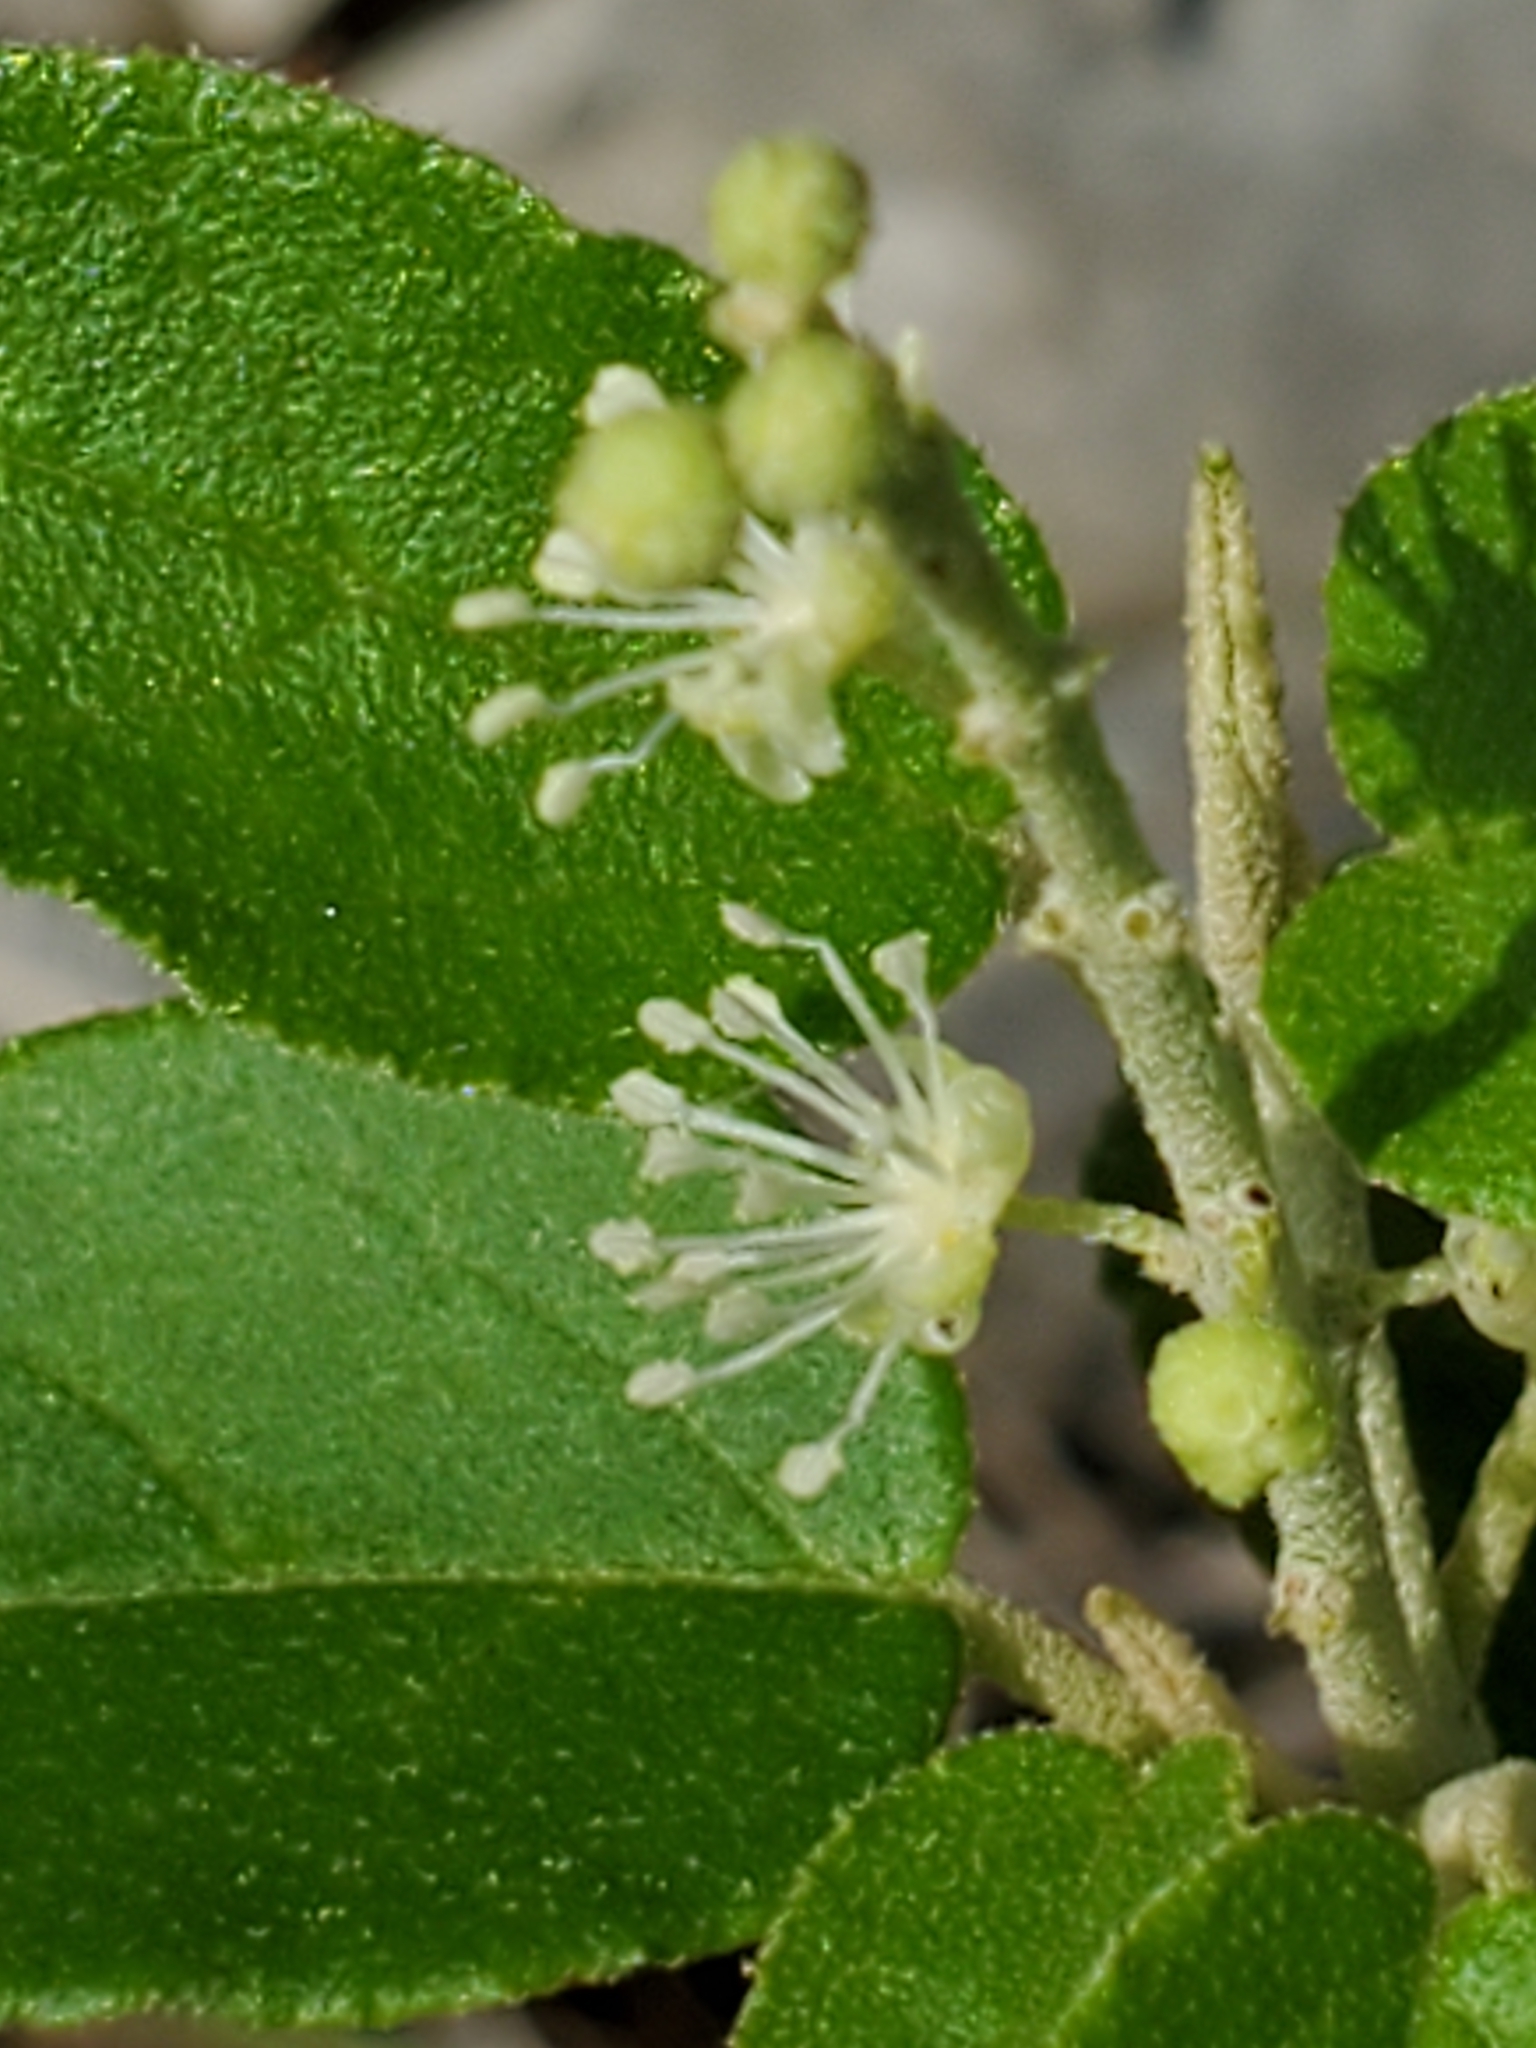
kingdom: Plantae
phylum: Tracheophyta
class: Magnoliopsida
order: Malpighiales
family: Euphorbiaceae
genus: Croton
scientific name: Croton fruticulosus
